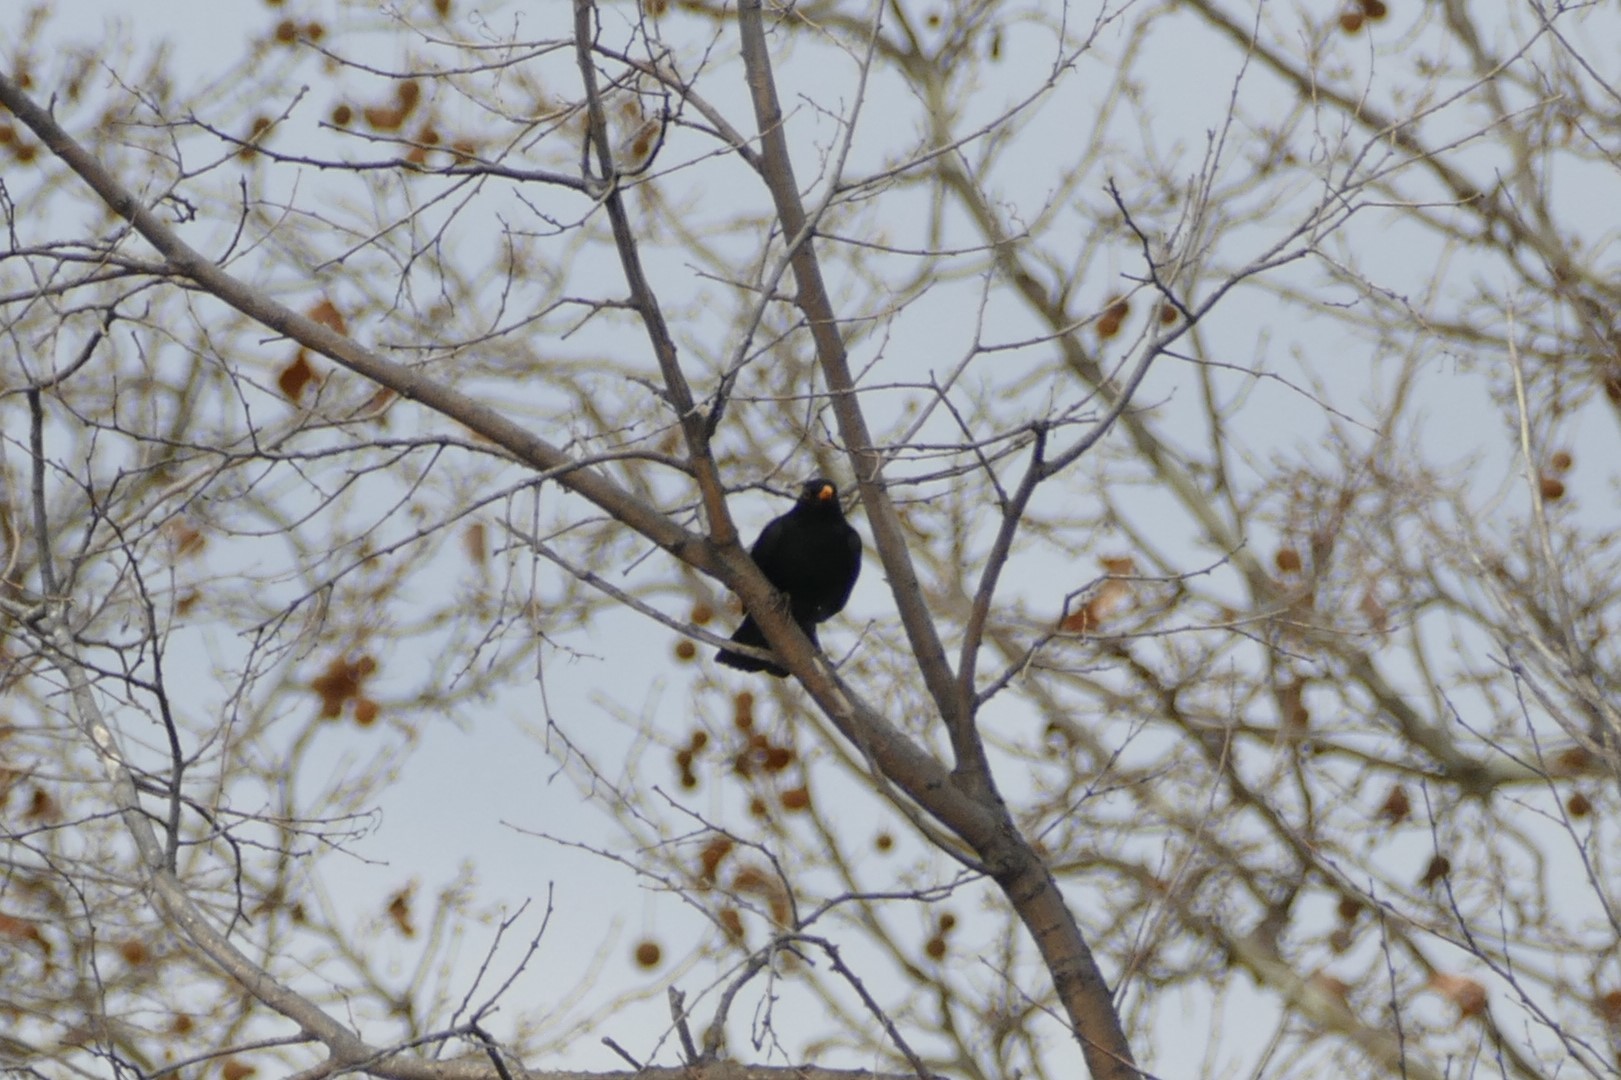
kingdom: Animalia
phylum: Chordata
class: Aves
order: Passeriformes
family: Turdidae
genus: Turdus
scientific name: Turdus merula
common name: Common blackbird
